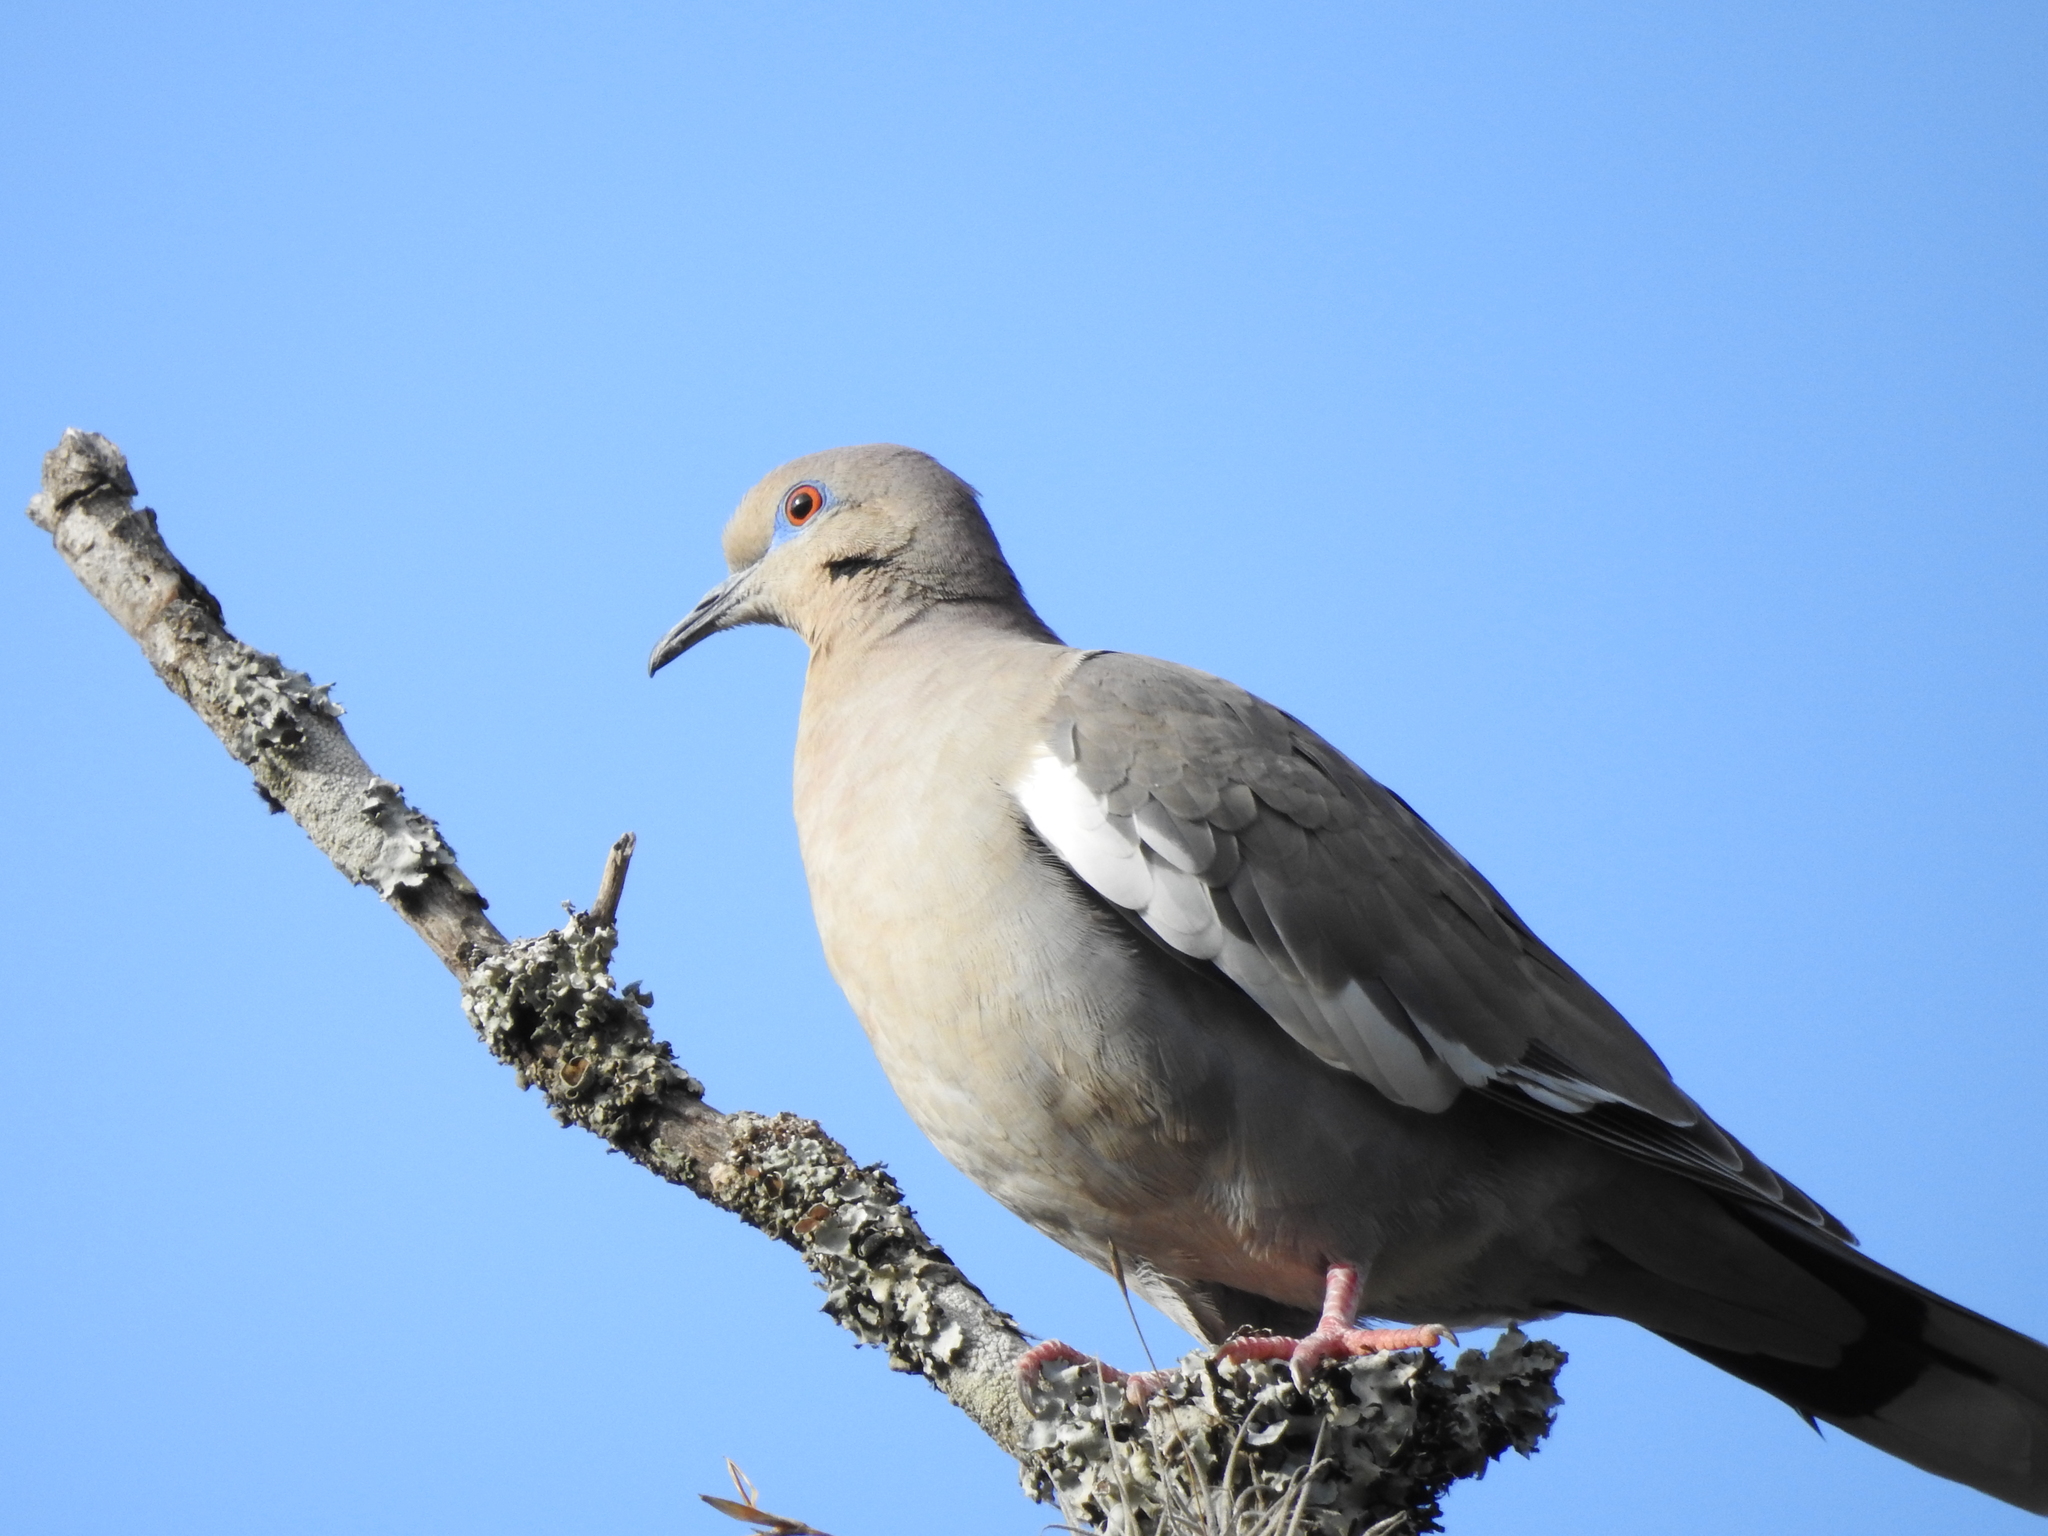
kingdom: Animalia
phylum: Chordata
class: Aves
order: Columbiformes
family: Columbidae
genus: Zenaida
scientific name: Zenaida asiatica
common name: White-winged dove
